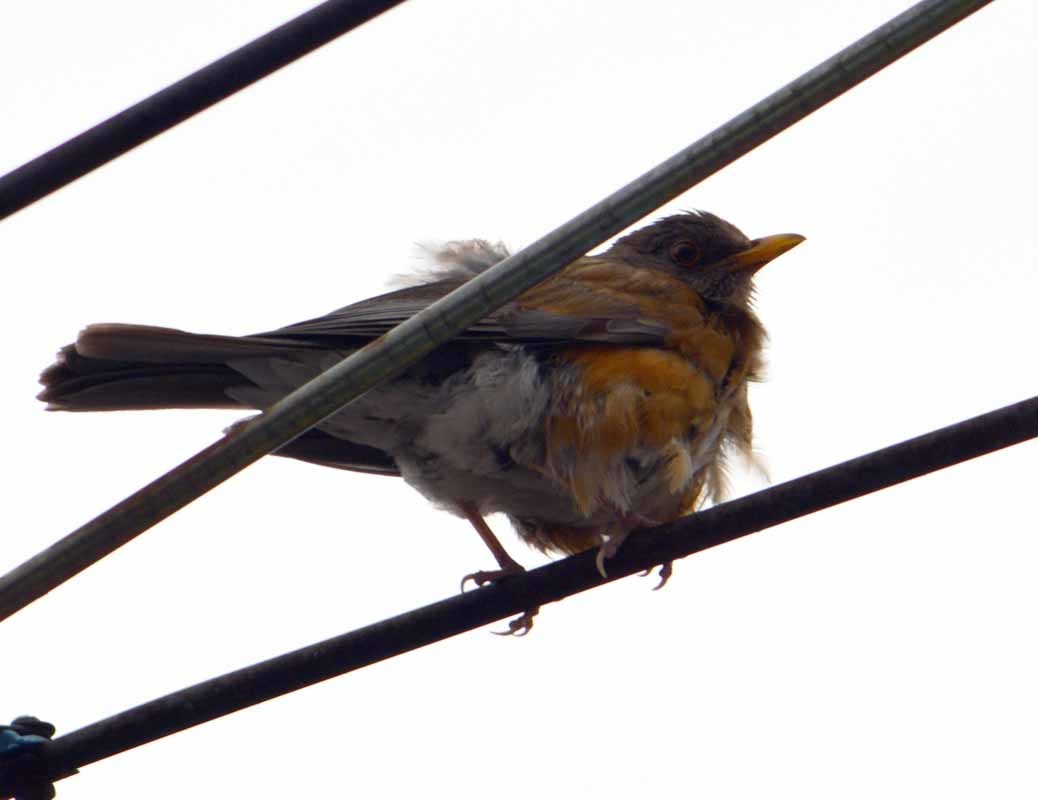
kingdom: Animalia
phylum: Chordata
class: Aves
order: Passeriformes
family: Turdidae
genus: Turdus
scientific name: Turdus rufopalliatus
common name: Rufous-backed robin
